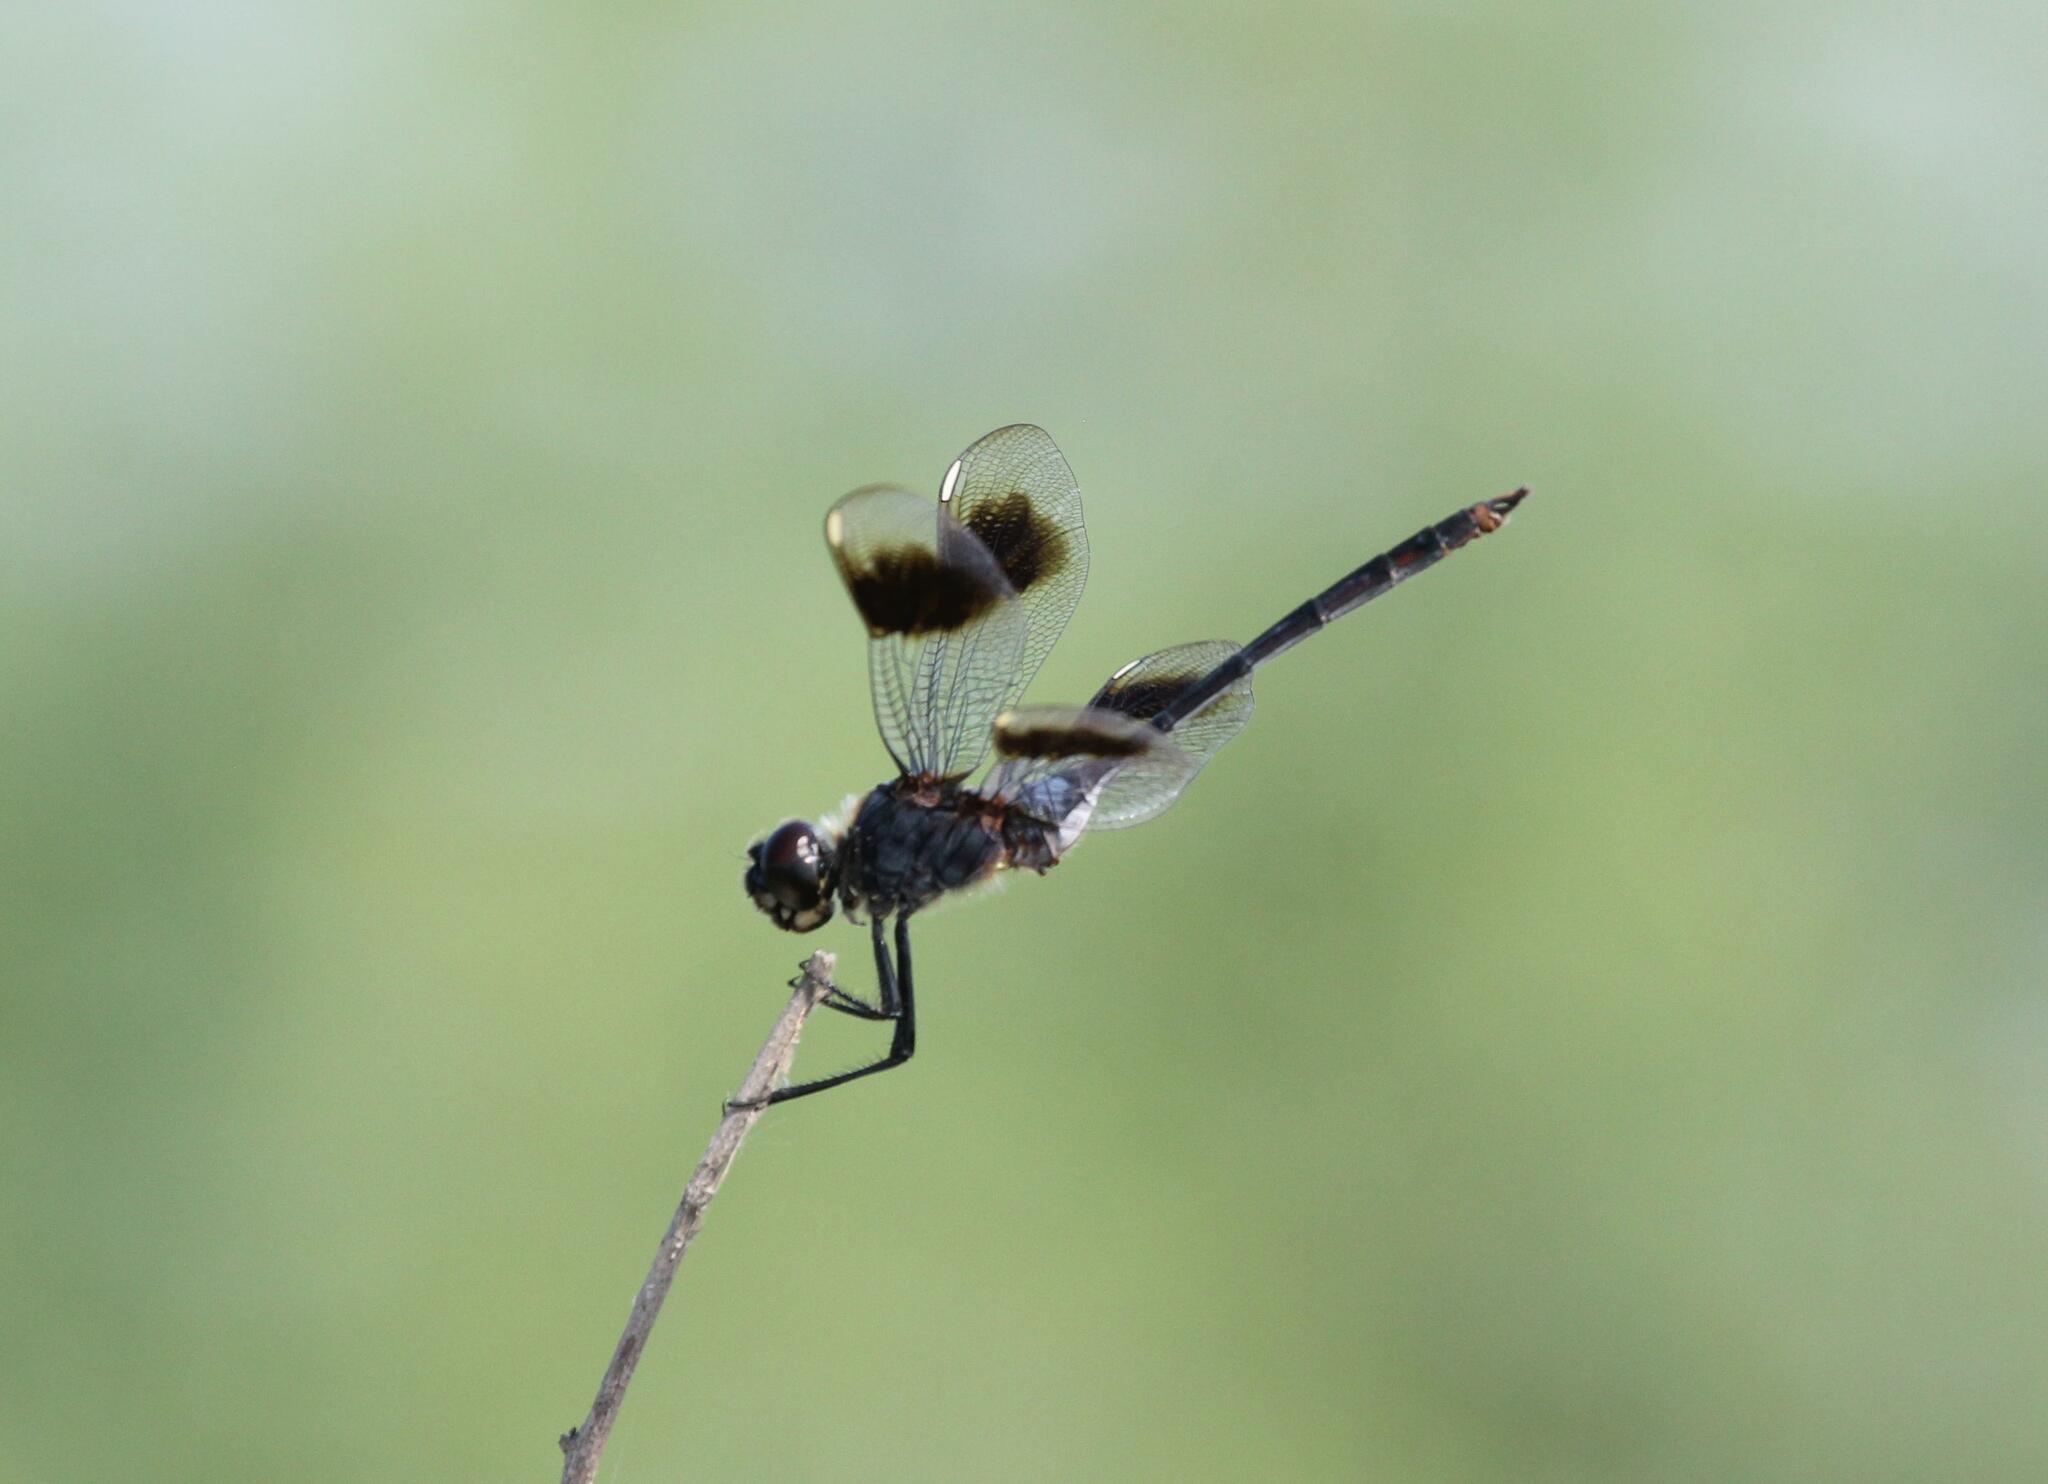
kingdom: Animalia
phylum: Arthropoda
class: Insecta
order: Odonata
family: Libellulidae
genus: Brachymesia
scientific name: Brachymesia gravida
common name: Four-spotted pennant
